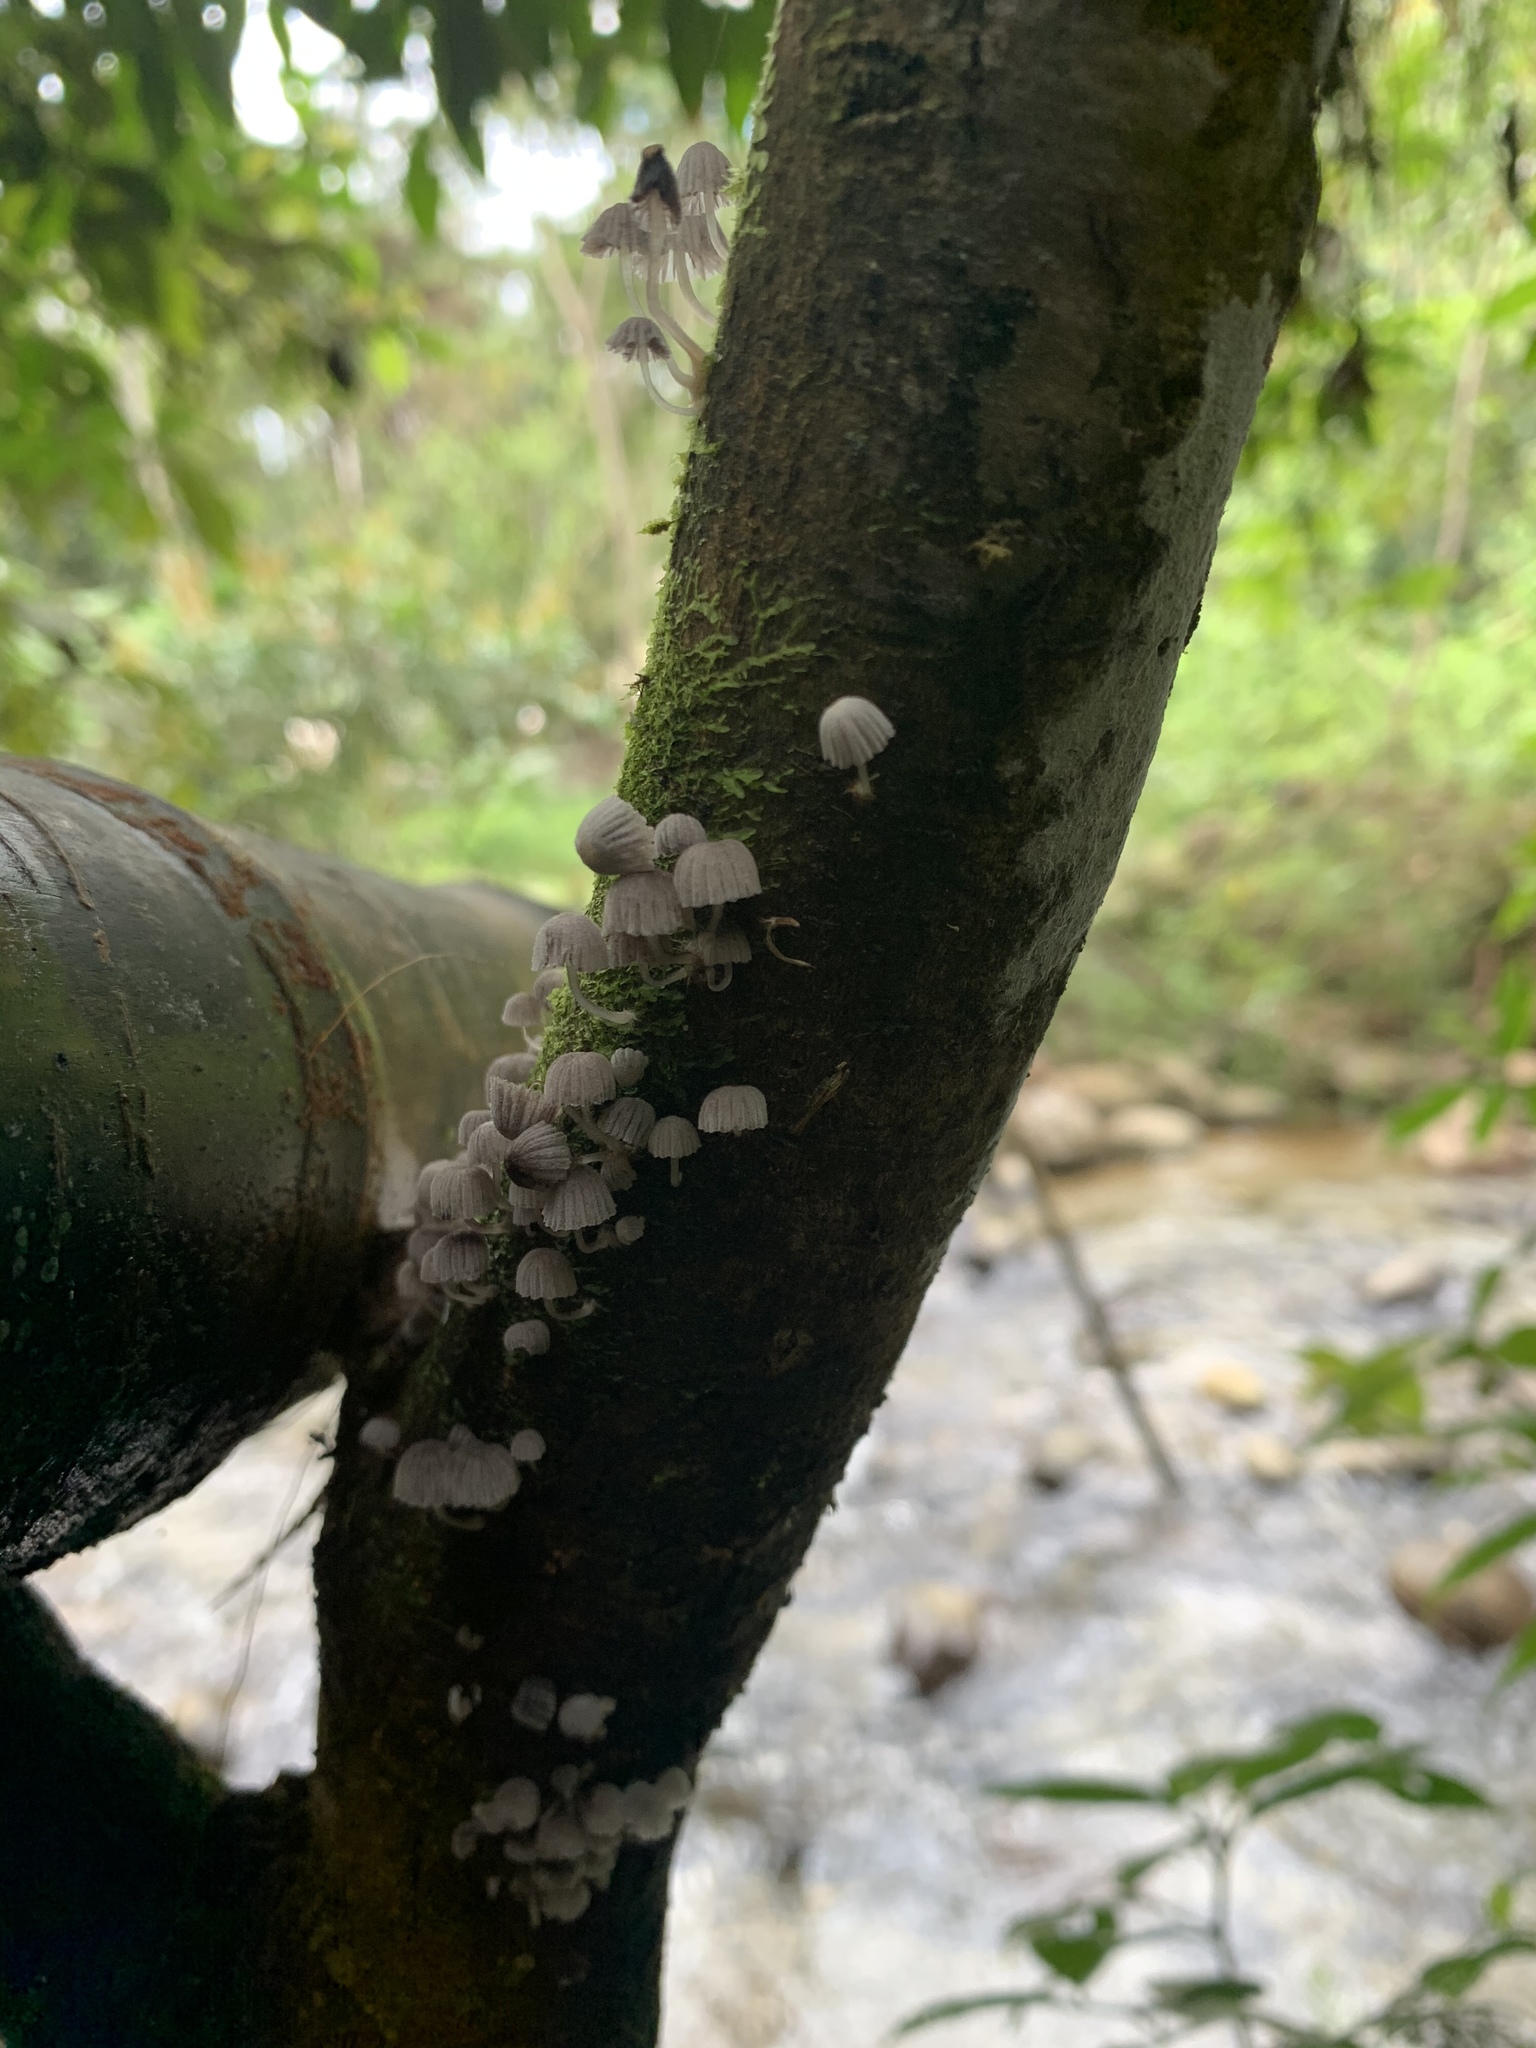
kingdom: Fungi
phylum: Basidiomycota
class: Agaricomycetes
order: Agaricales
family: Psathyrellaceae
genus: Coprinellus
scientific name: Coprinellus disseminatus
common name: Fairies' bonnets
